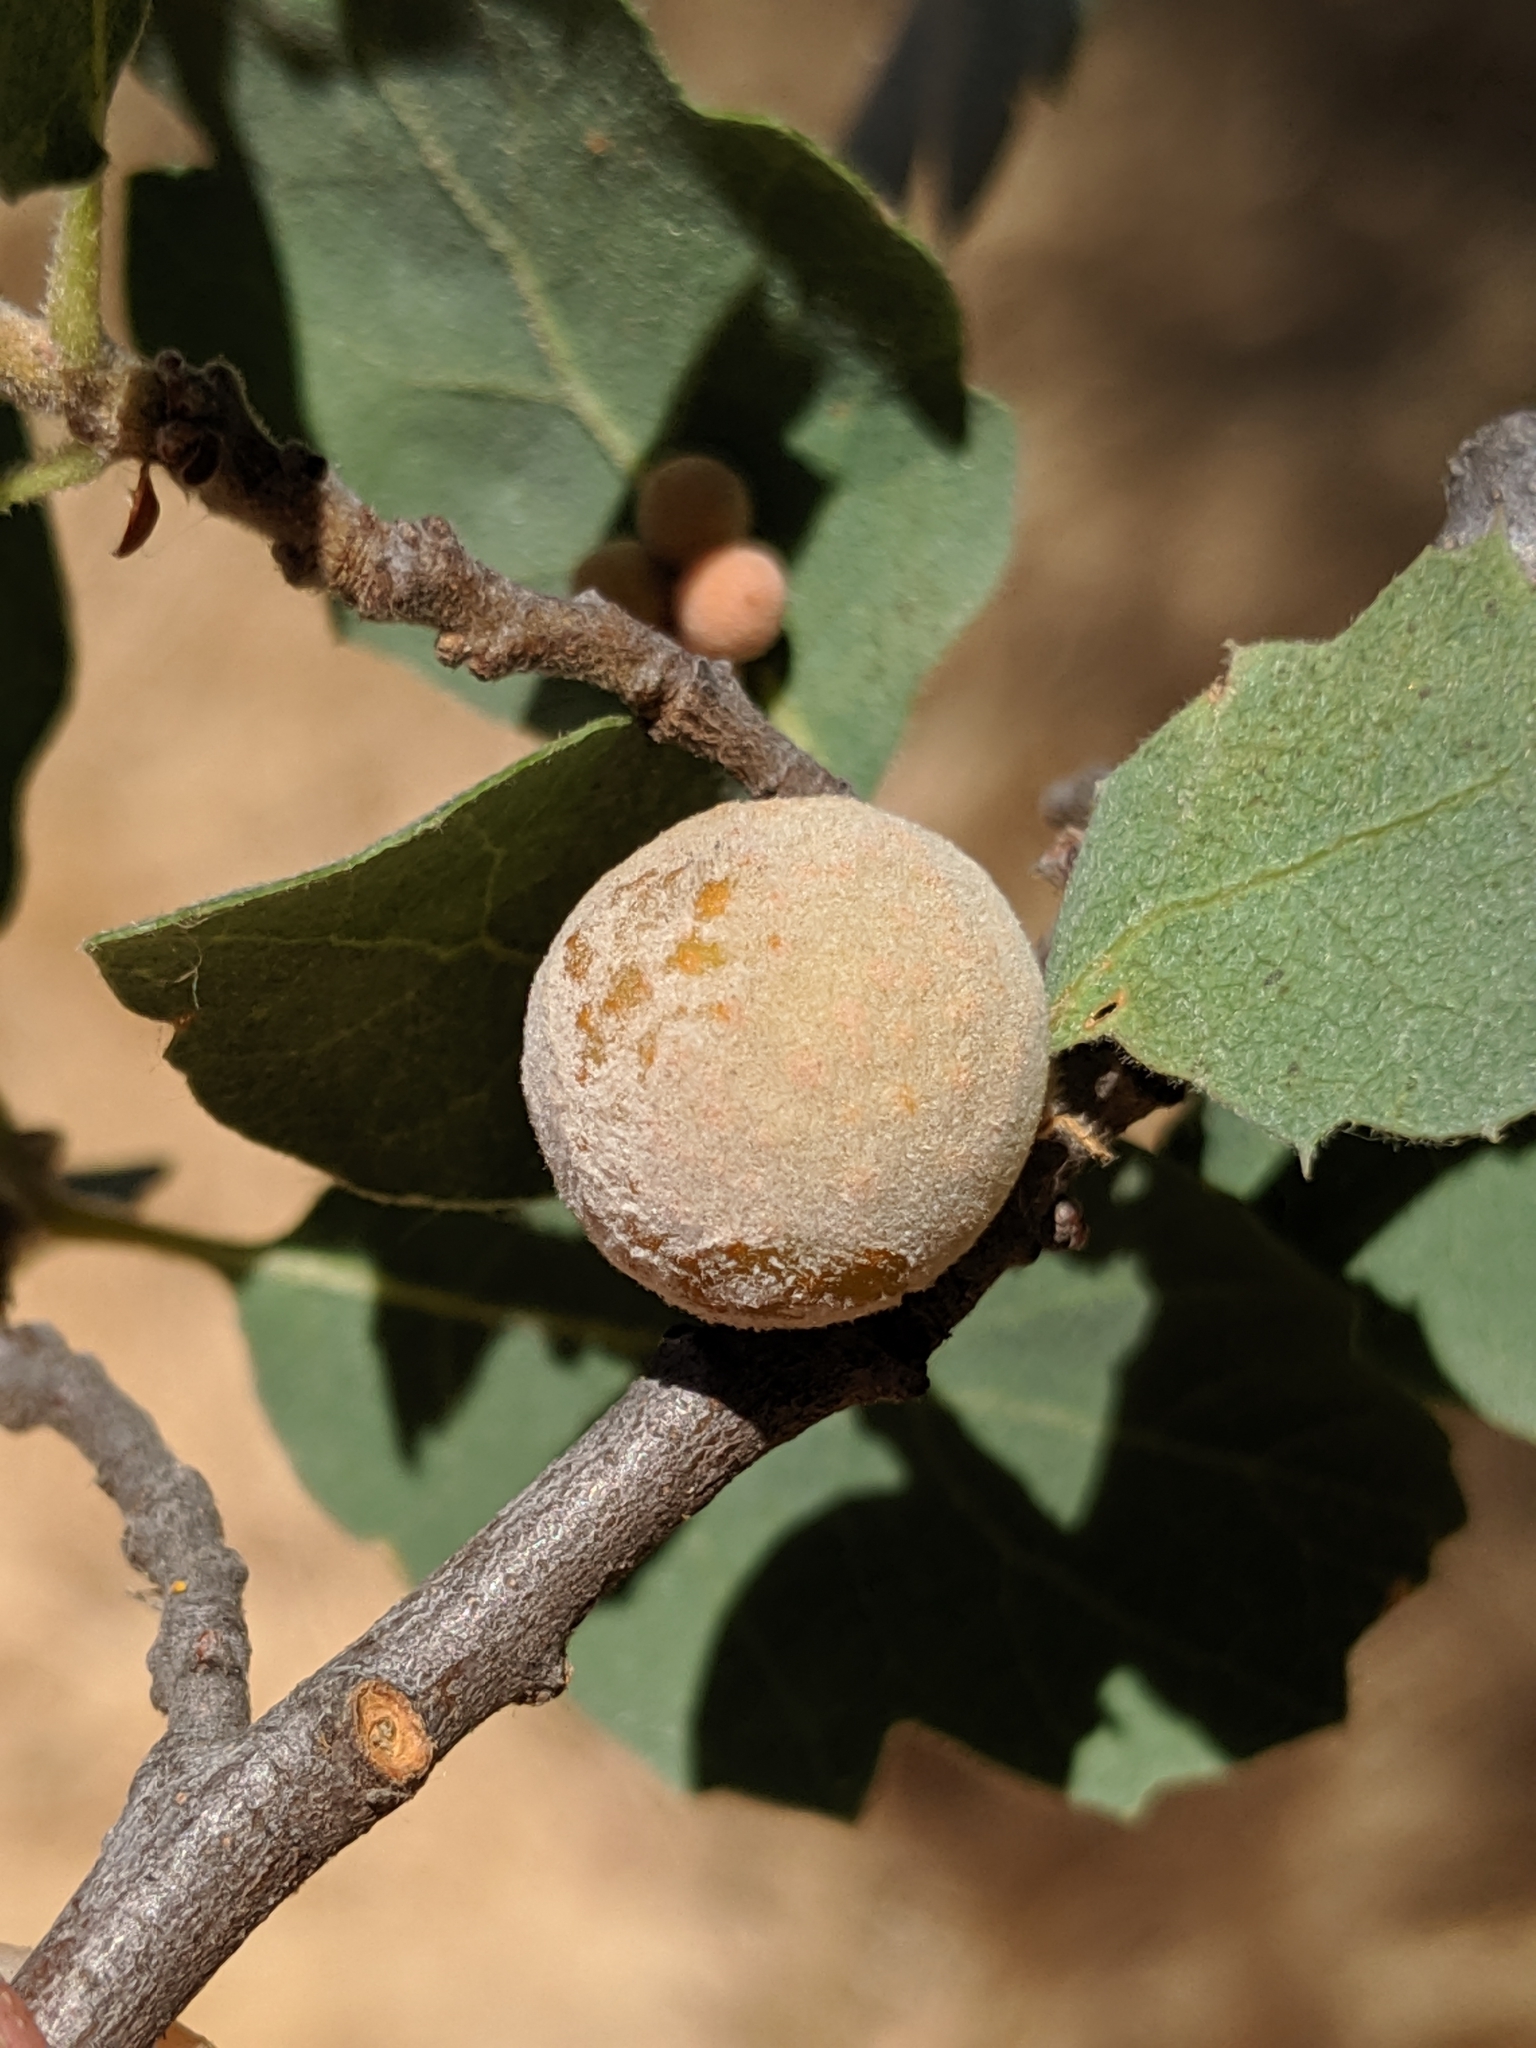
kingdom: Animalia
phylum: Arthropoda
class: Insecta
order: Hymenoptera
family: Cynipidae
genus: Andricus
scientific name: Andricus
